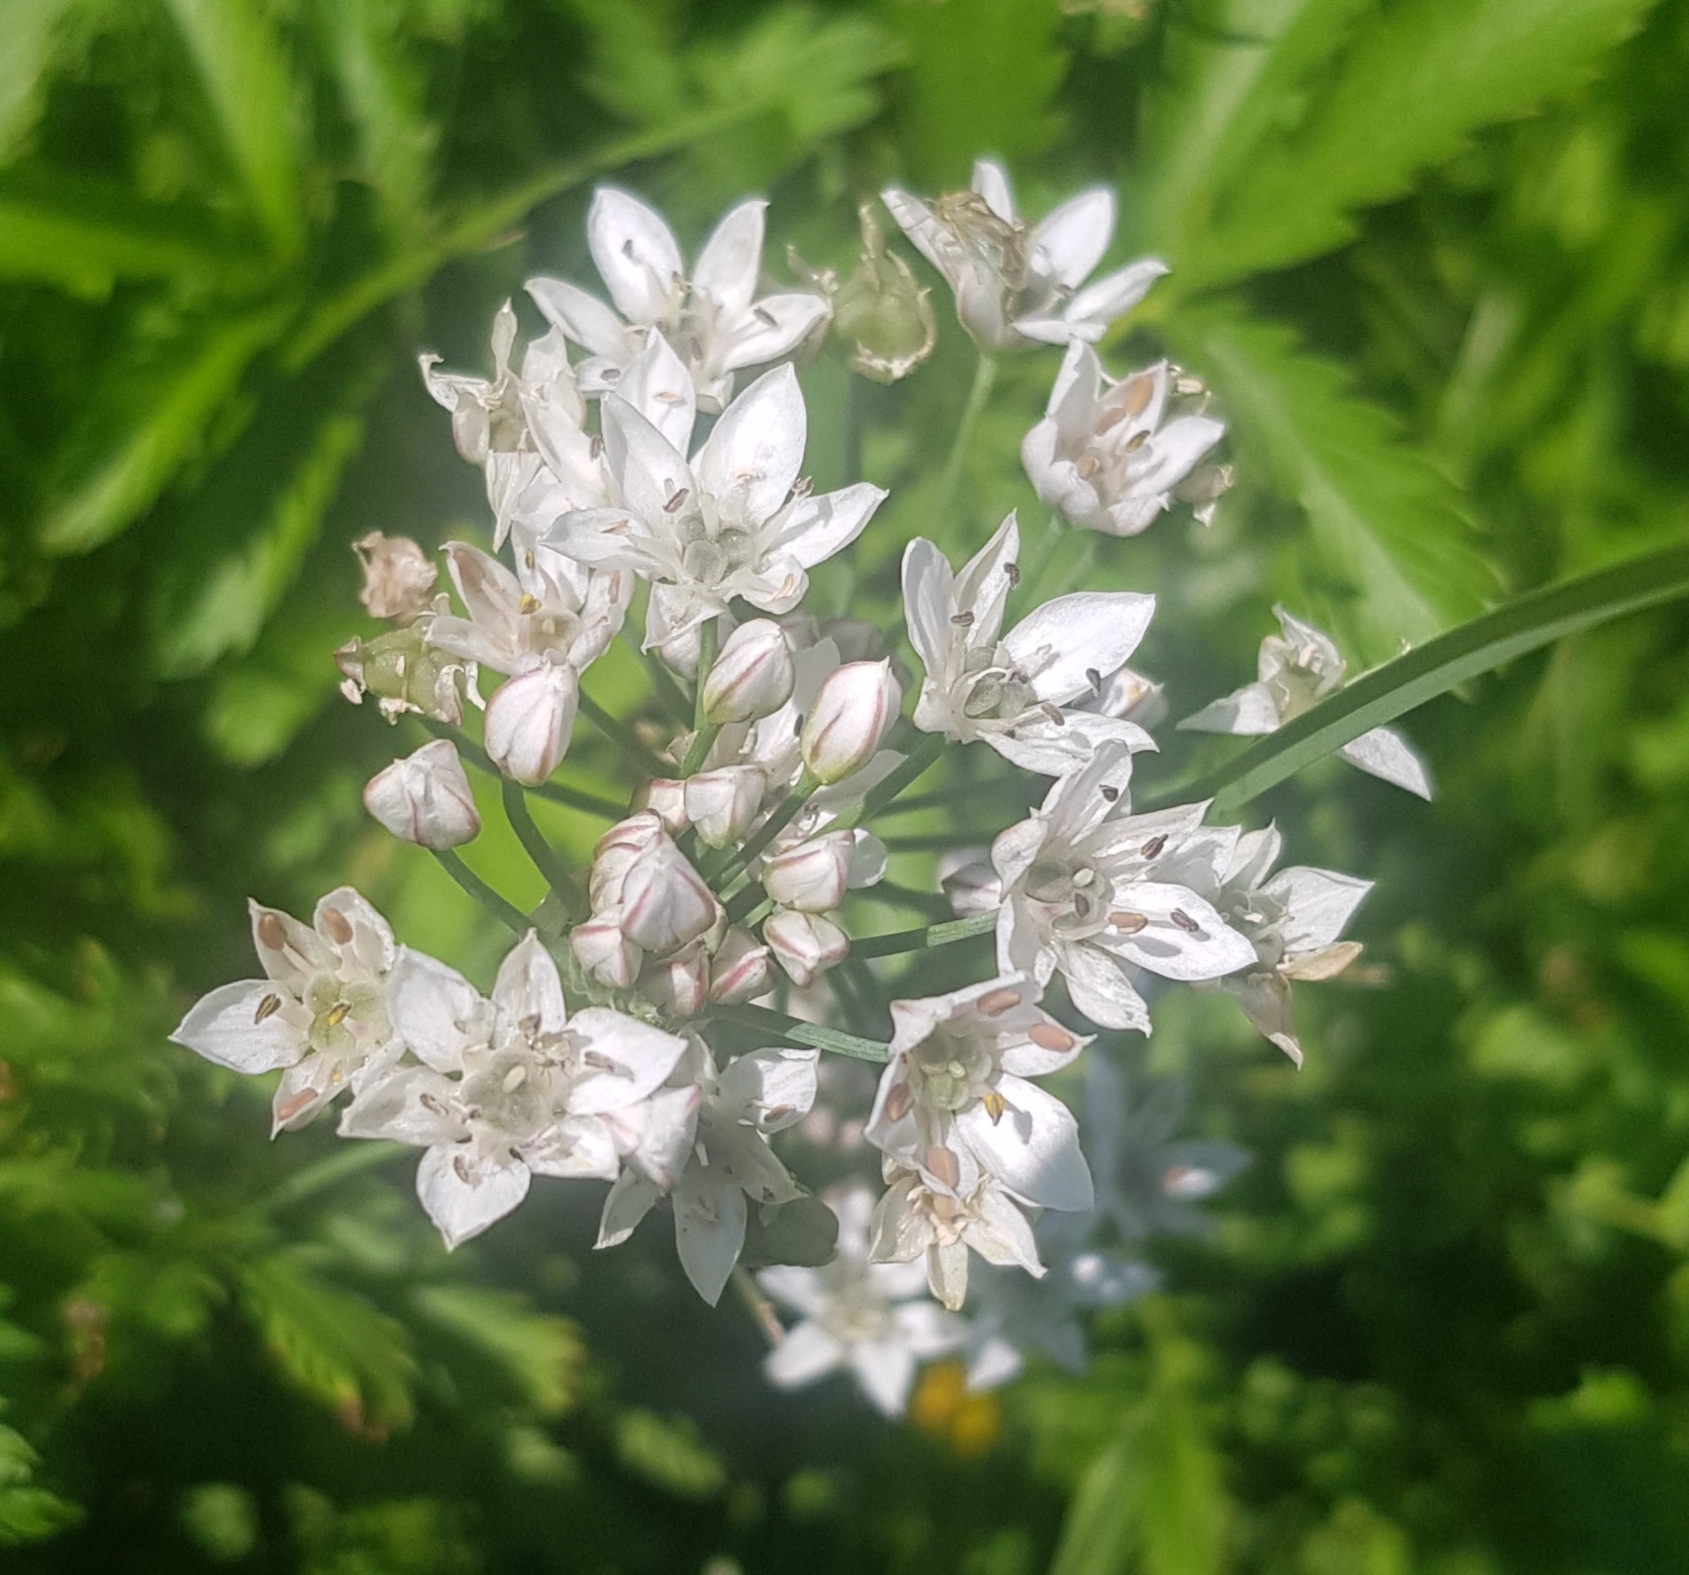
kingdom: Plantae
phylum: Tracheophyta
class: Liliopsida
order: Asparagales
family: Amaryllidaceae
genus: Allium
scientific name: Allium ramosum
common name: Fragrant garlic
